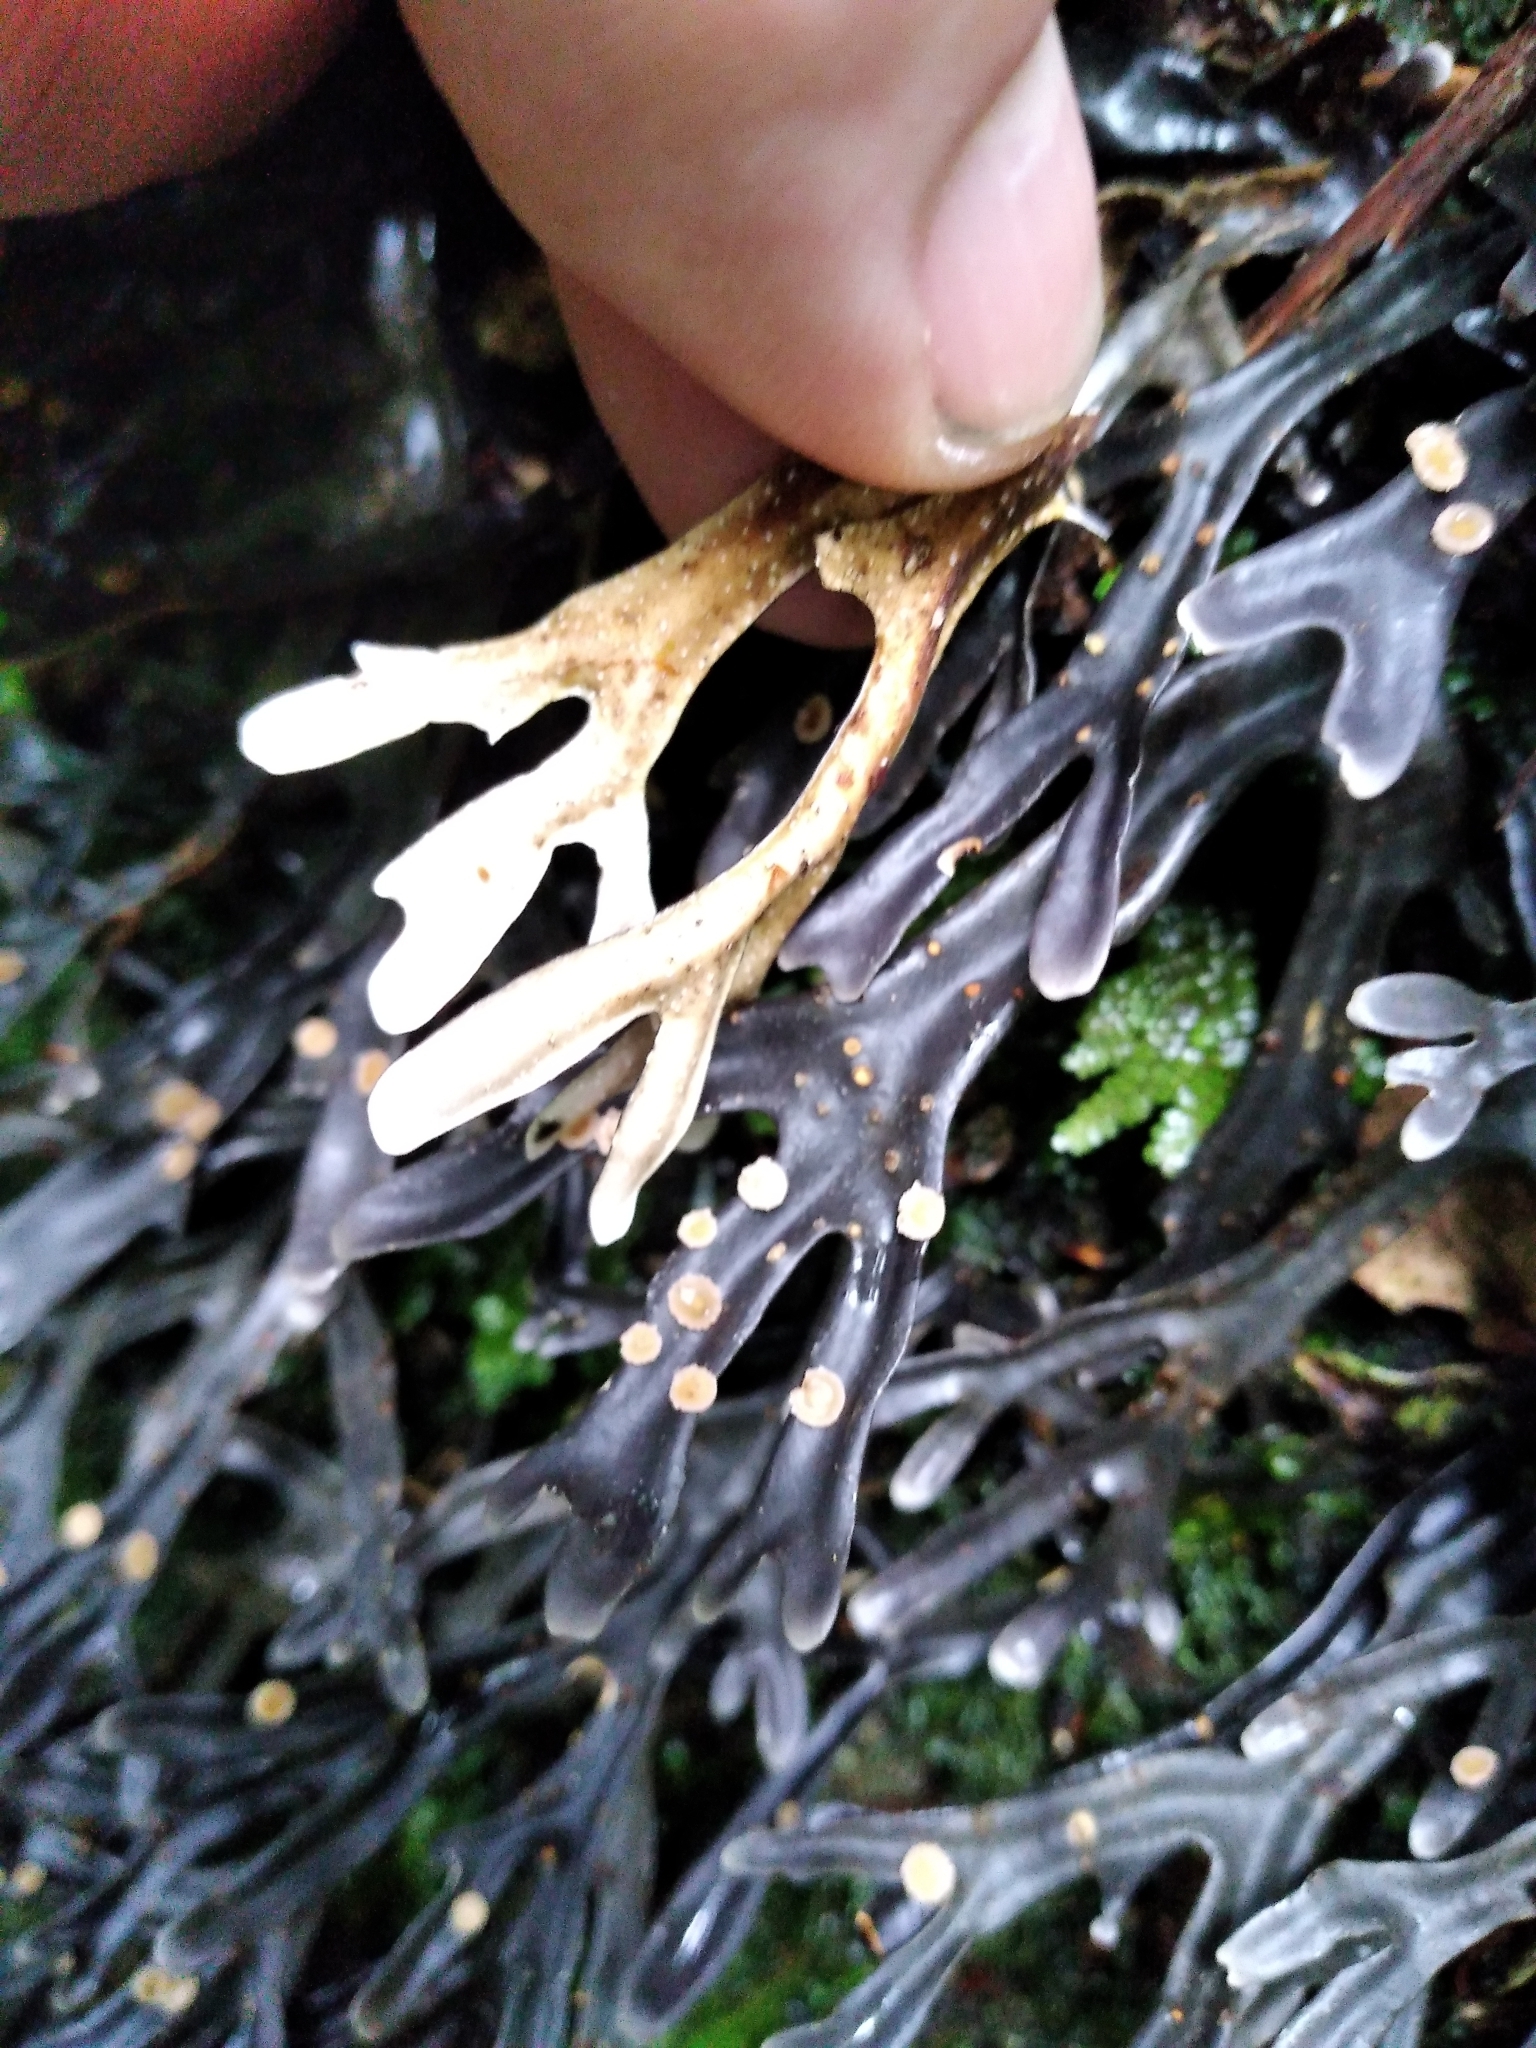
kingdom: Fungi
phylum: Ascomycota
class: Lecanoromycetes
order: Peltigerales
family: Lobariaceae
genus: Pseudocyphellaria
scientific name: Pseudocyphellaria cinnamomea
